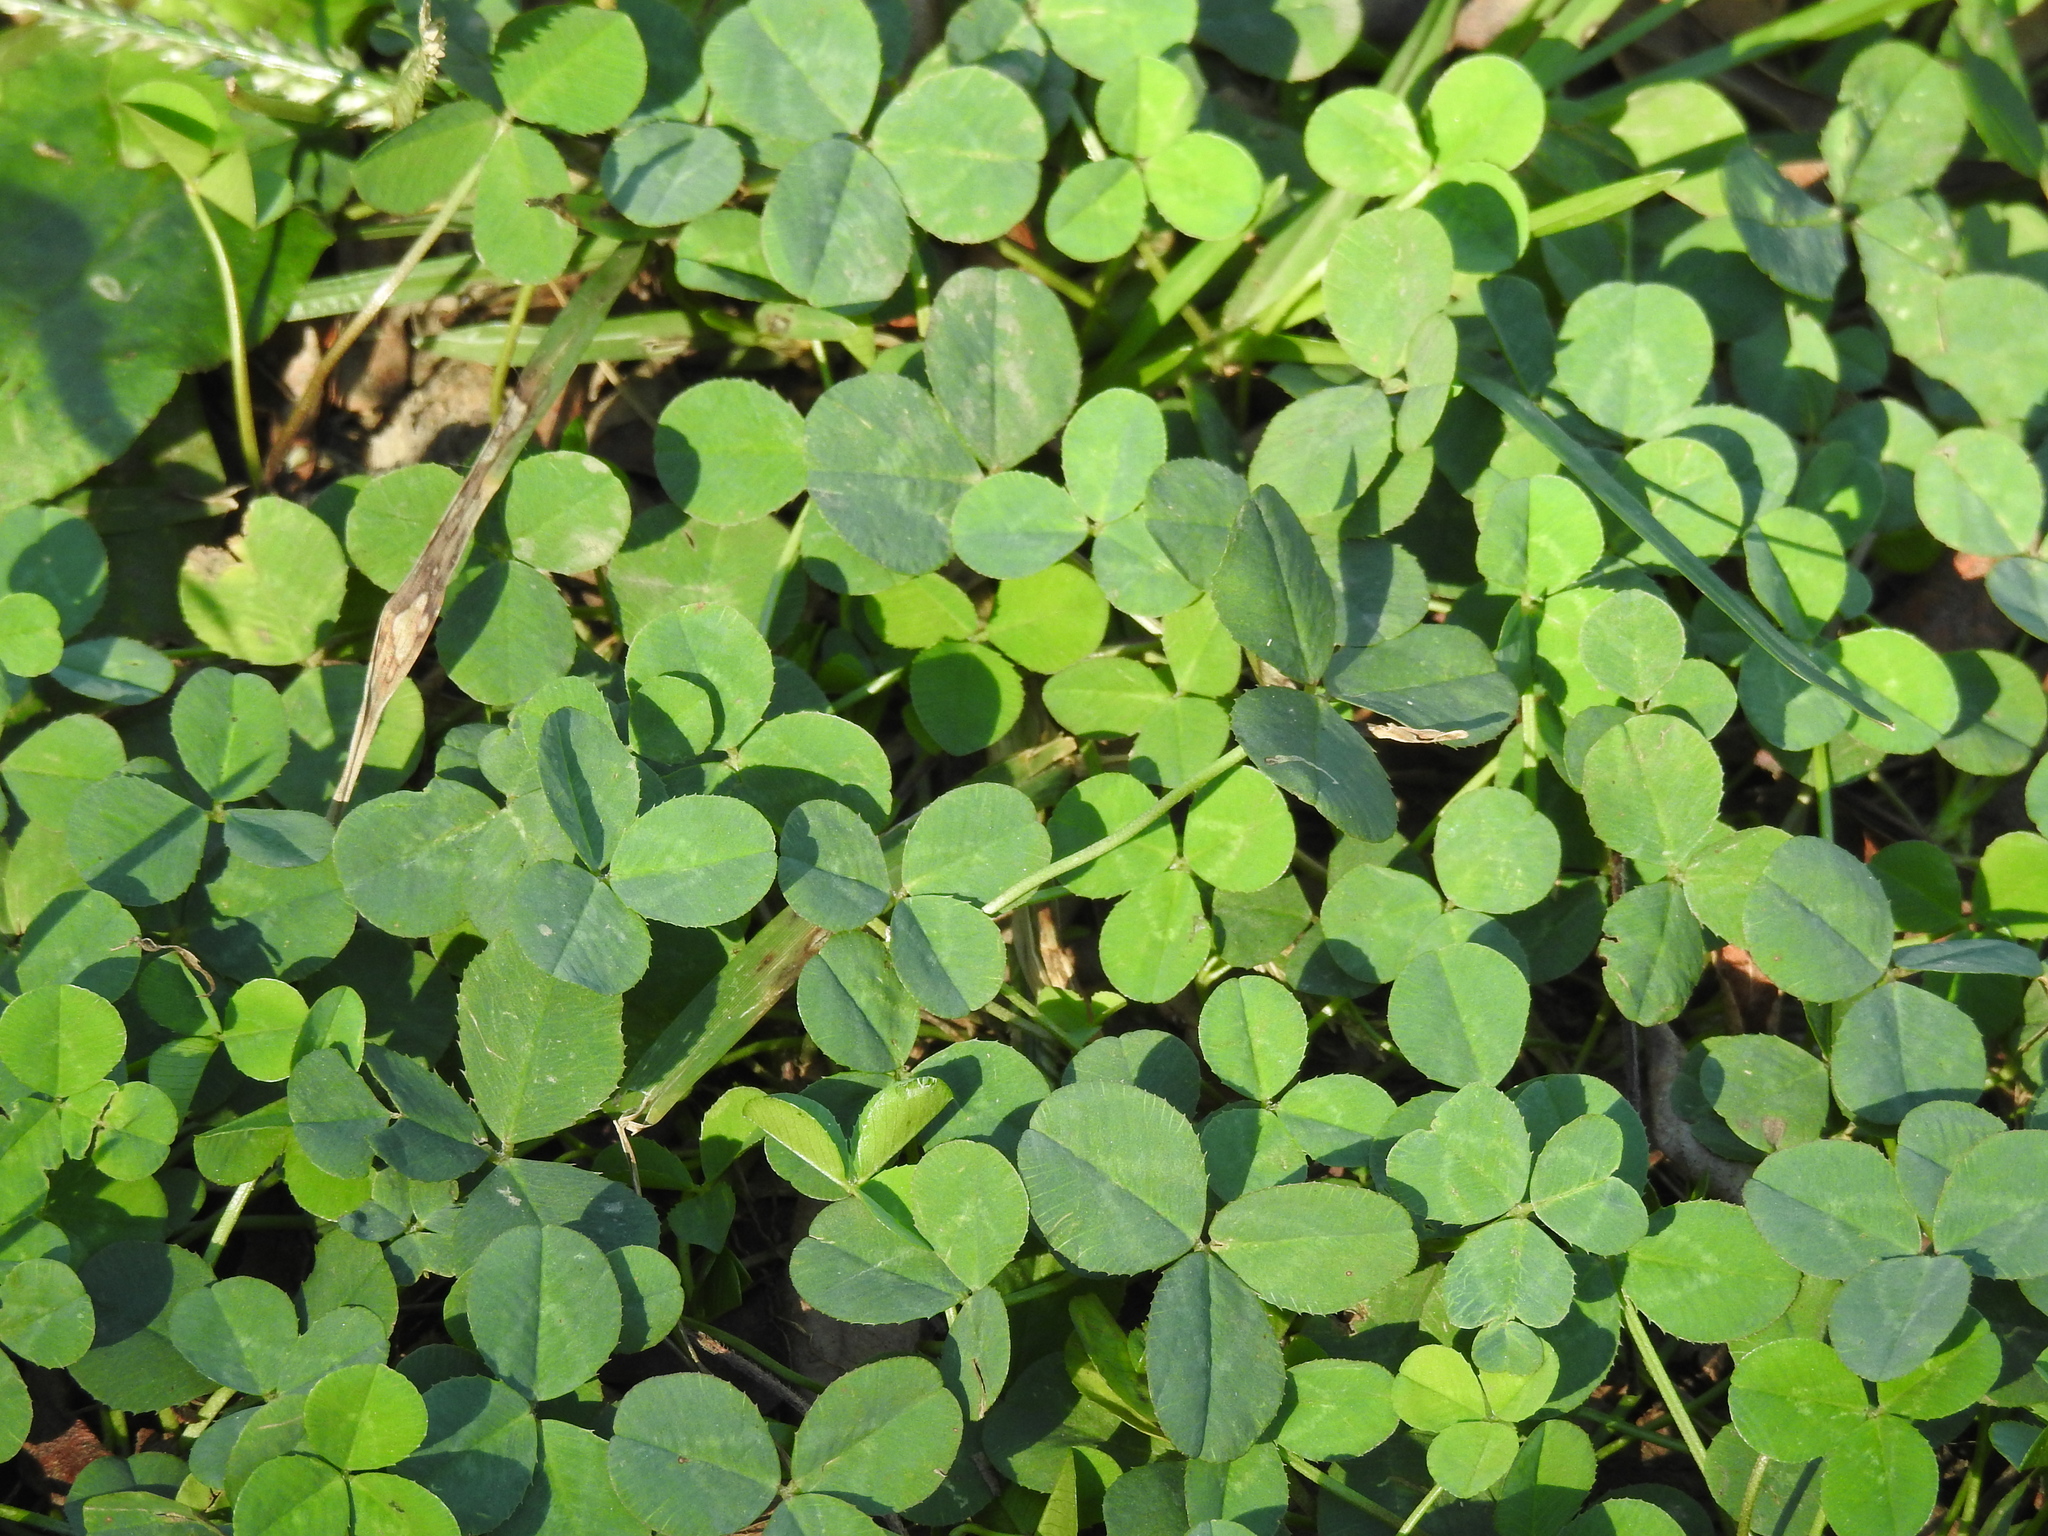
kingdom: Plantae
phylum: Tracheophyta
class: Magnoliopsida
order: Fabales
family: Fabaceae
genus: Trifolium
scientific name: Trifolium repens
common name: White clover
